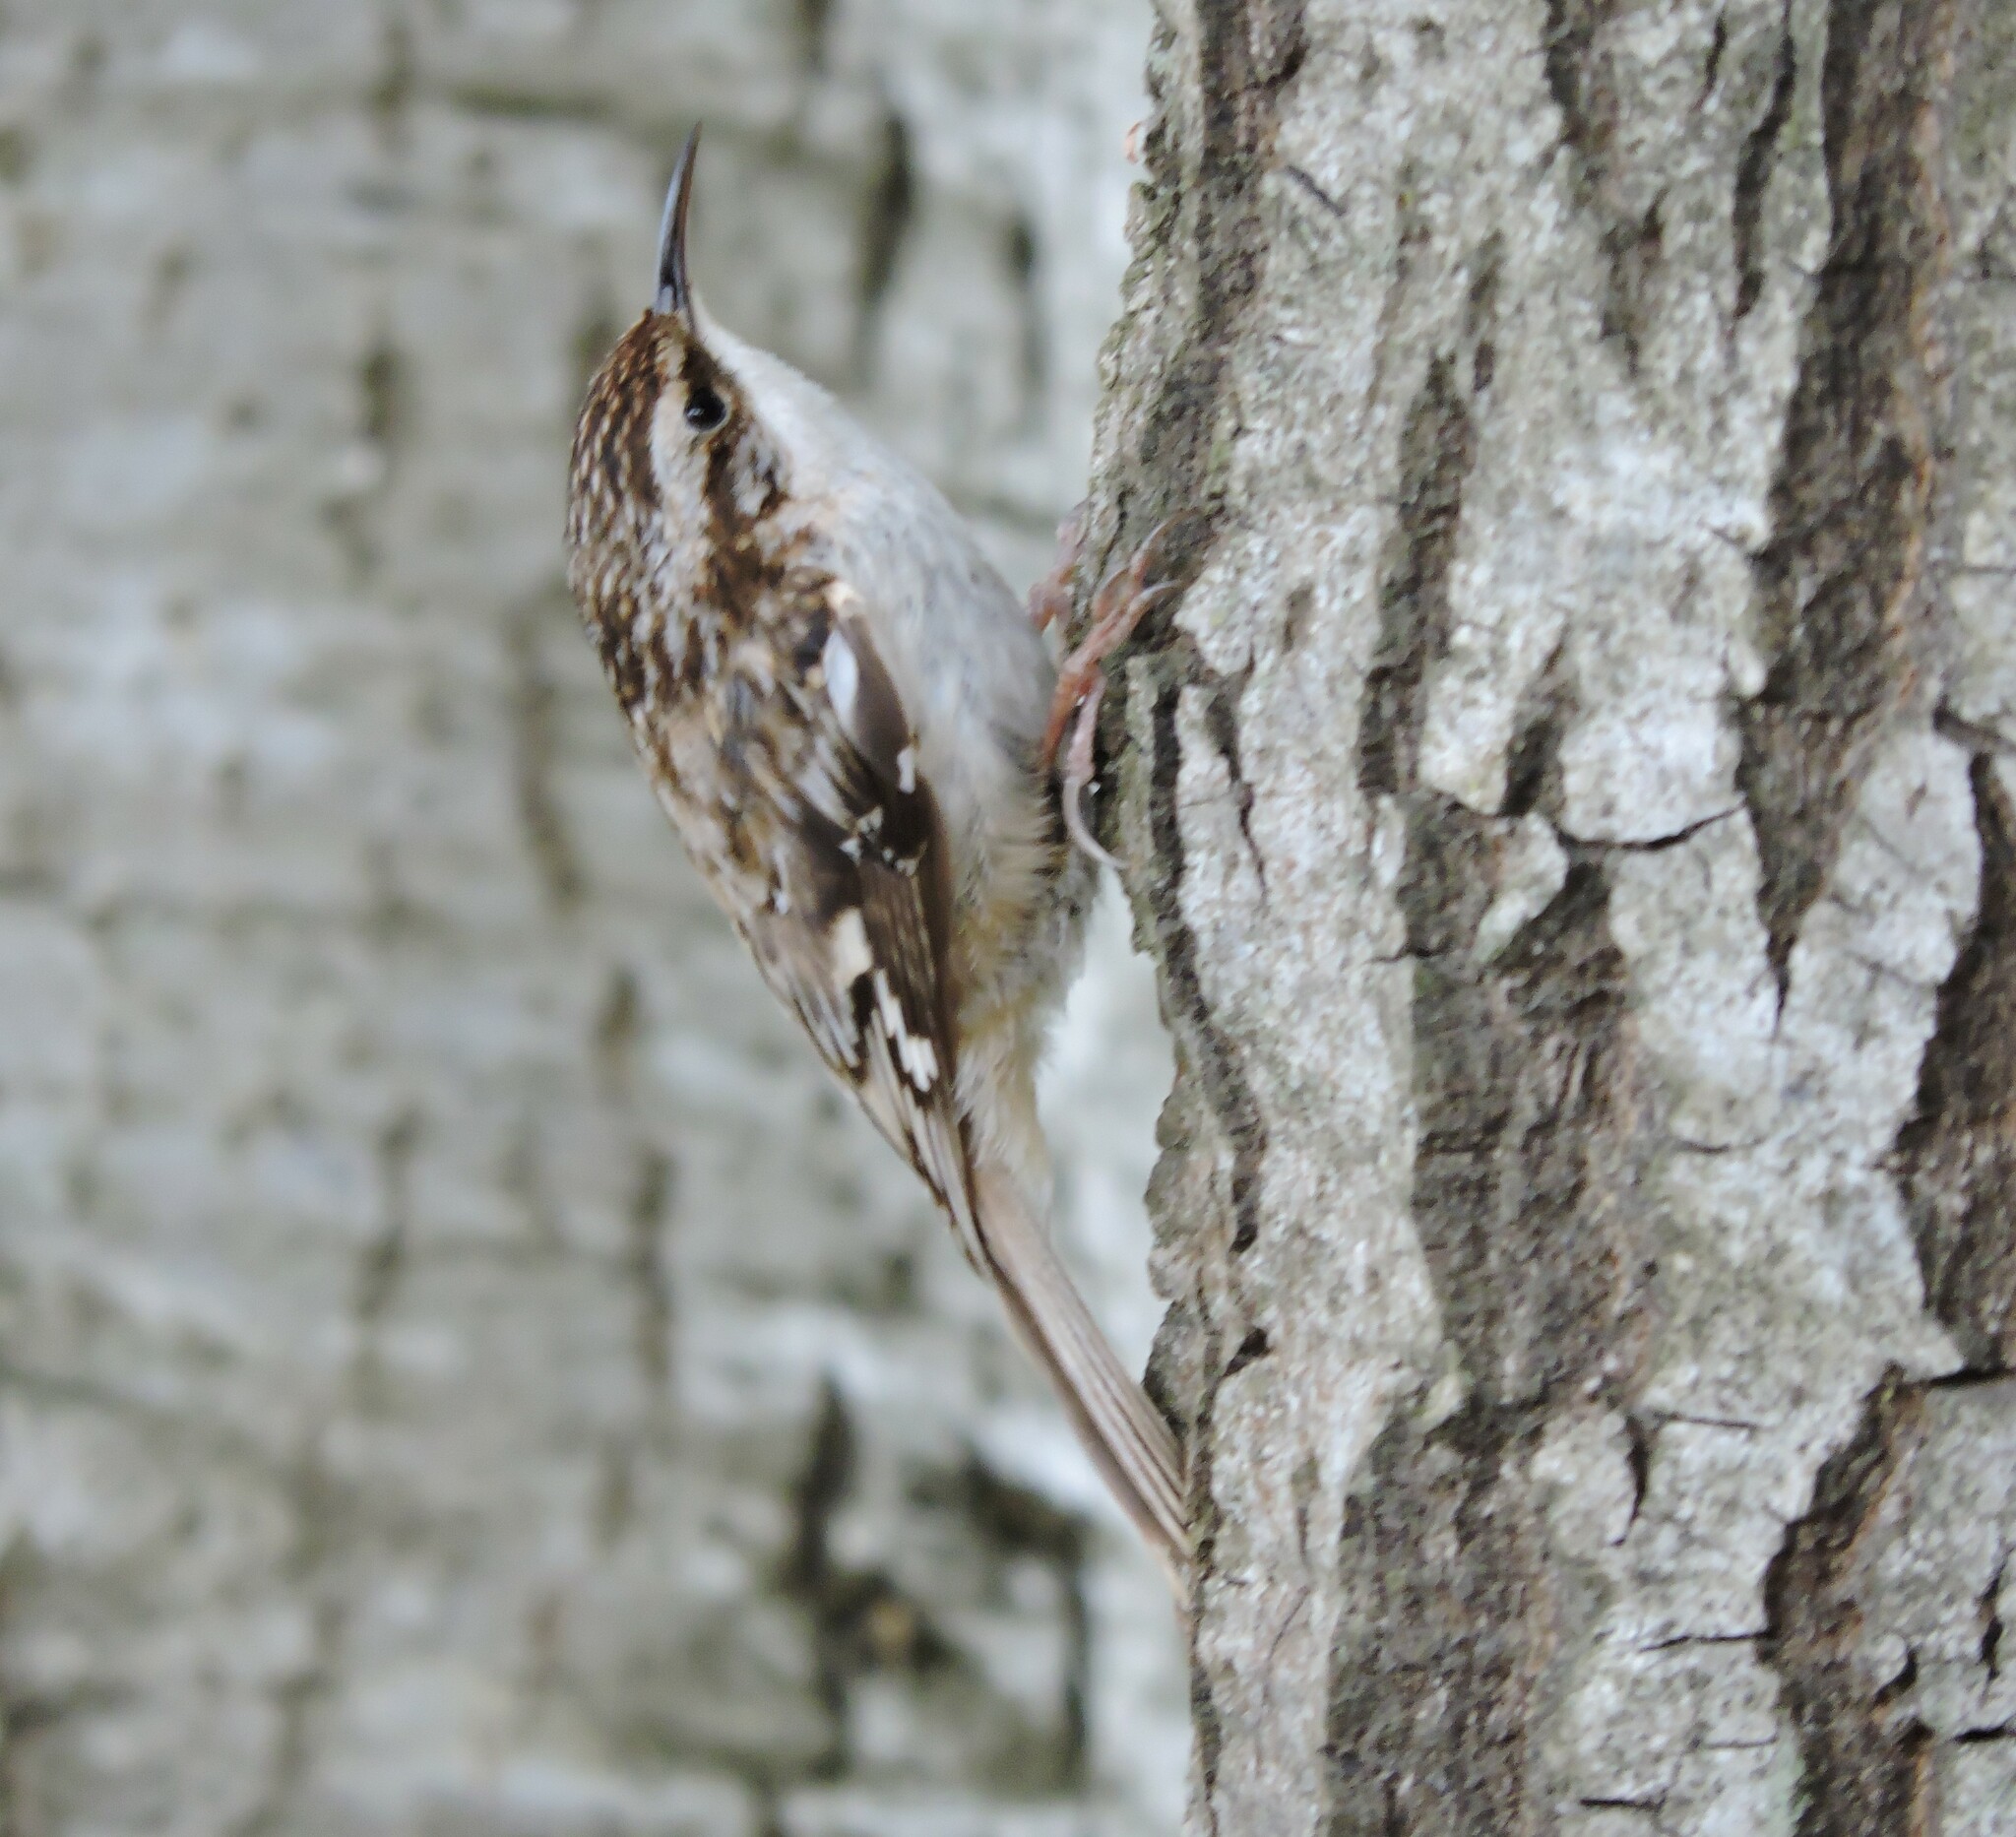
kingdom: Animalia
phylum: Chordata
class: Aves
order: Passeriformes
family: Certhiidae
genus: Certhia
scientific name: Certhia americana
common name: Brown creeper
